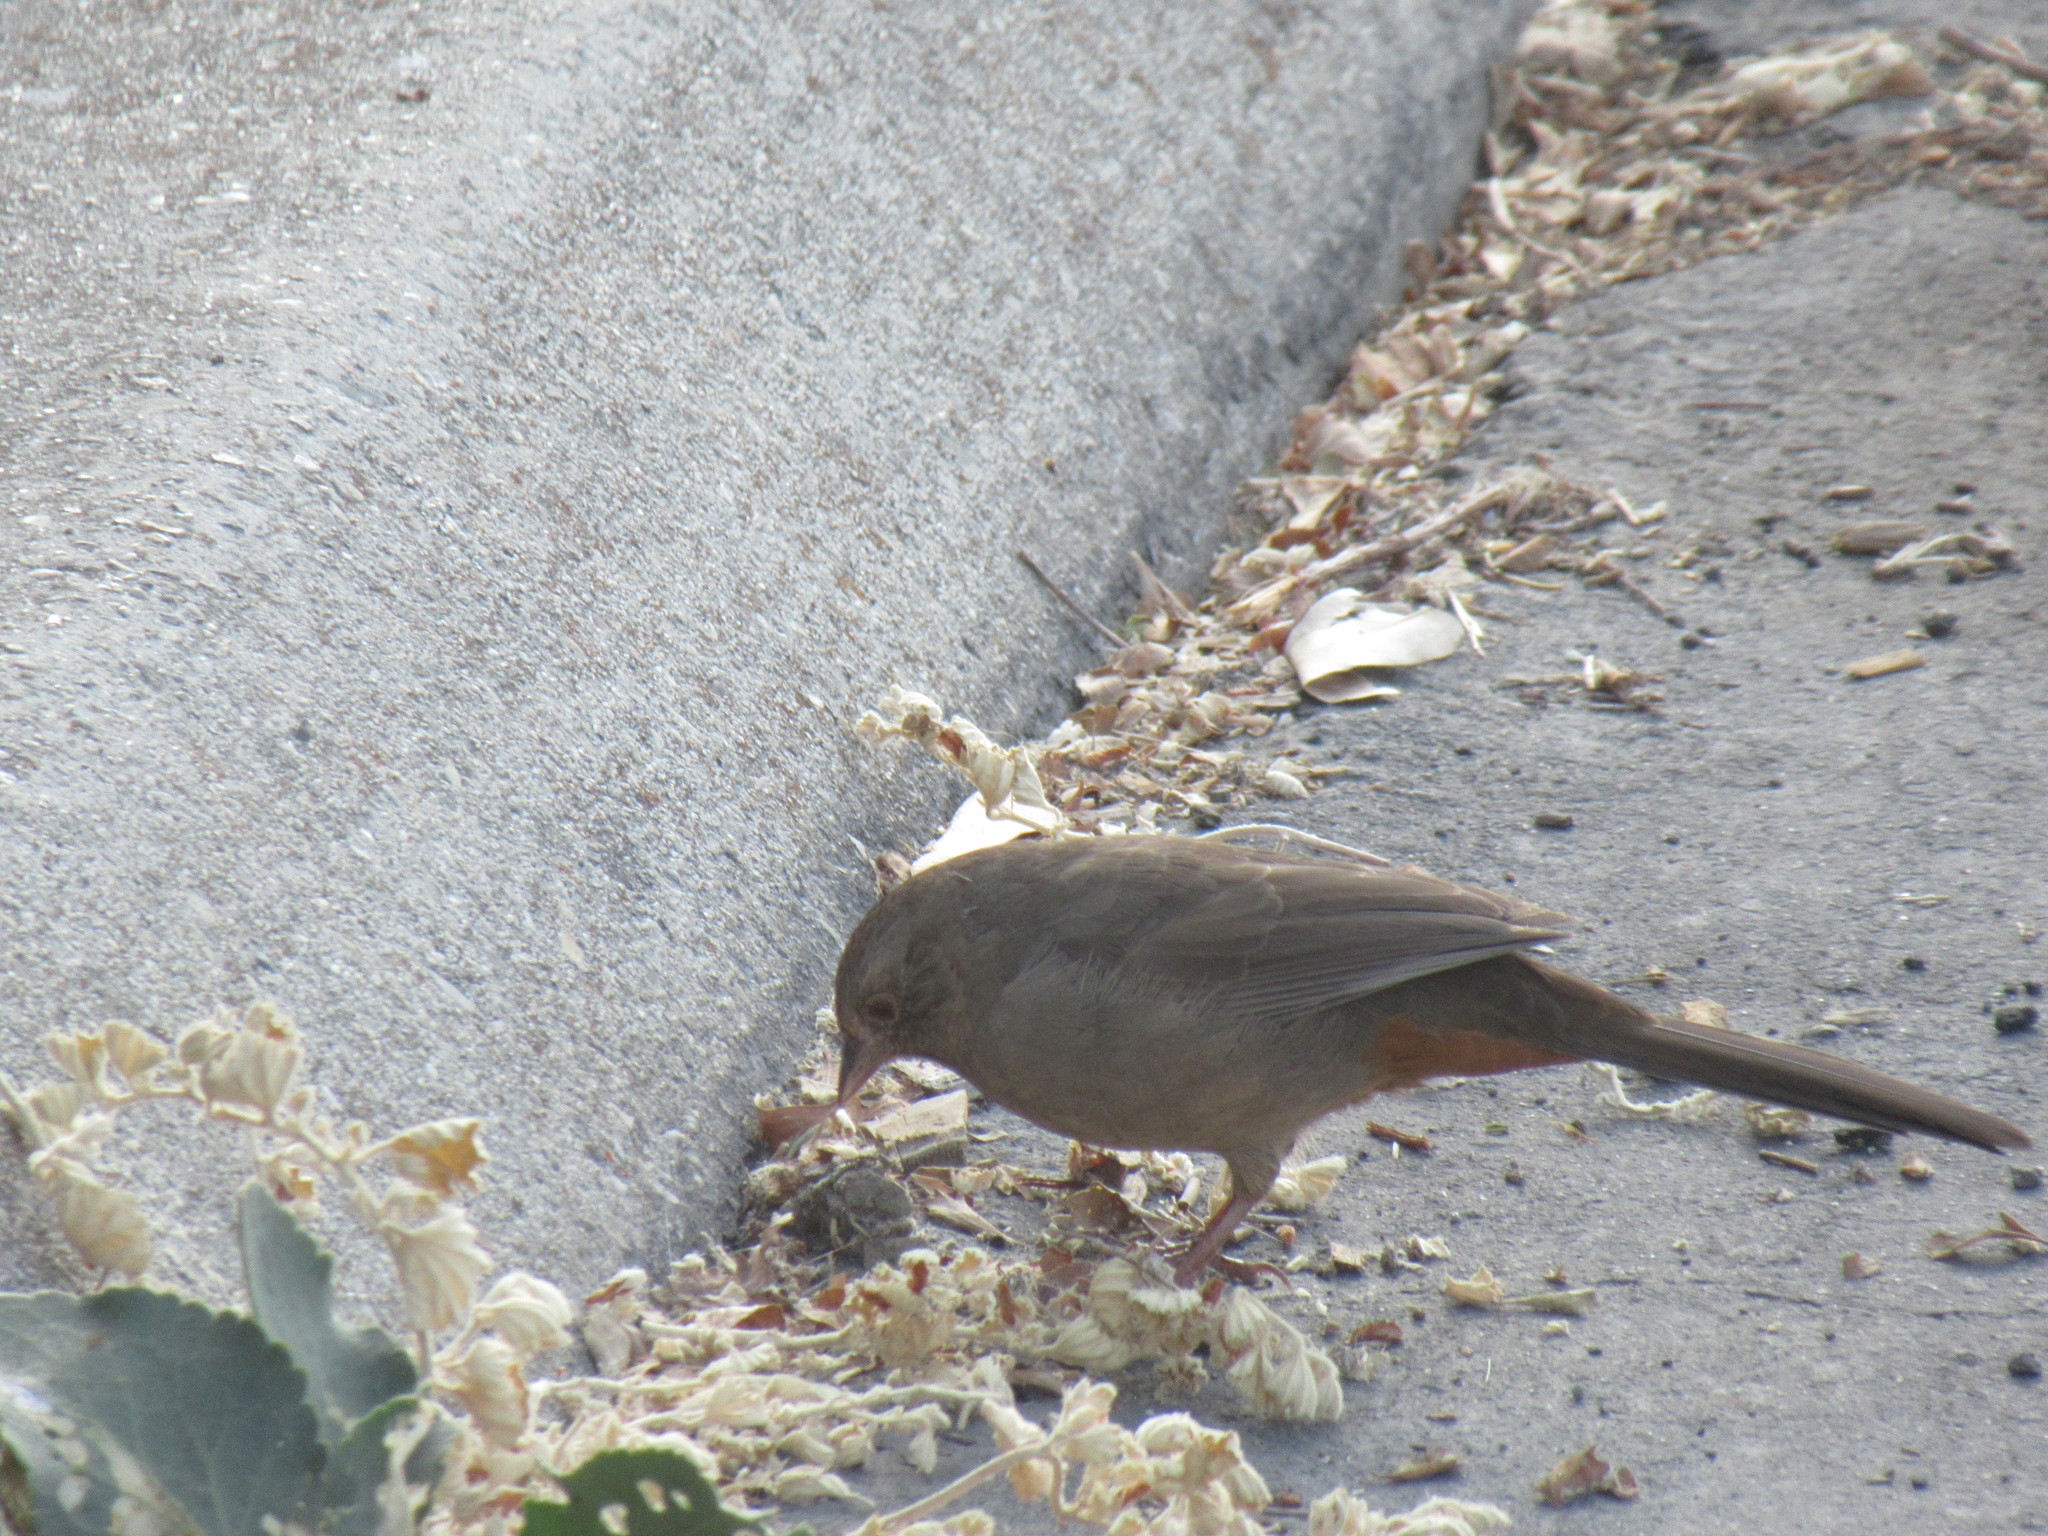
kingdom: Animalia
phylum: Chordata
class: Aves
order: Passeriformes
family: Passerellidae
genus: Melozone
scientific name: Melozone crissalis
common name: California towhee
